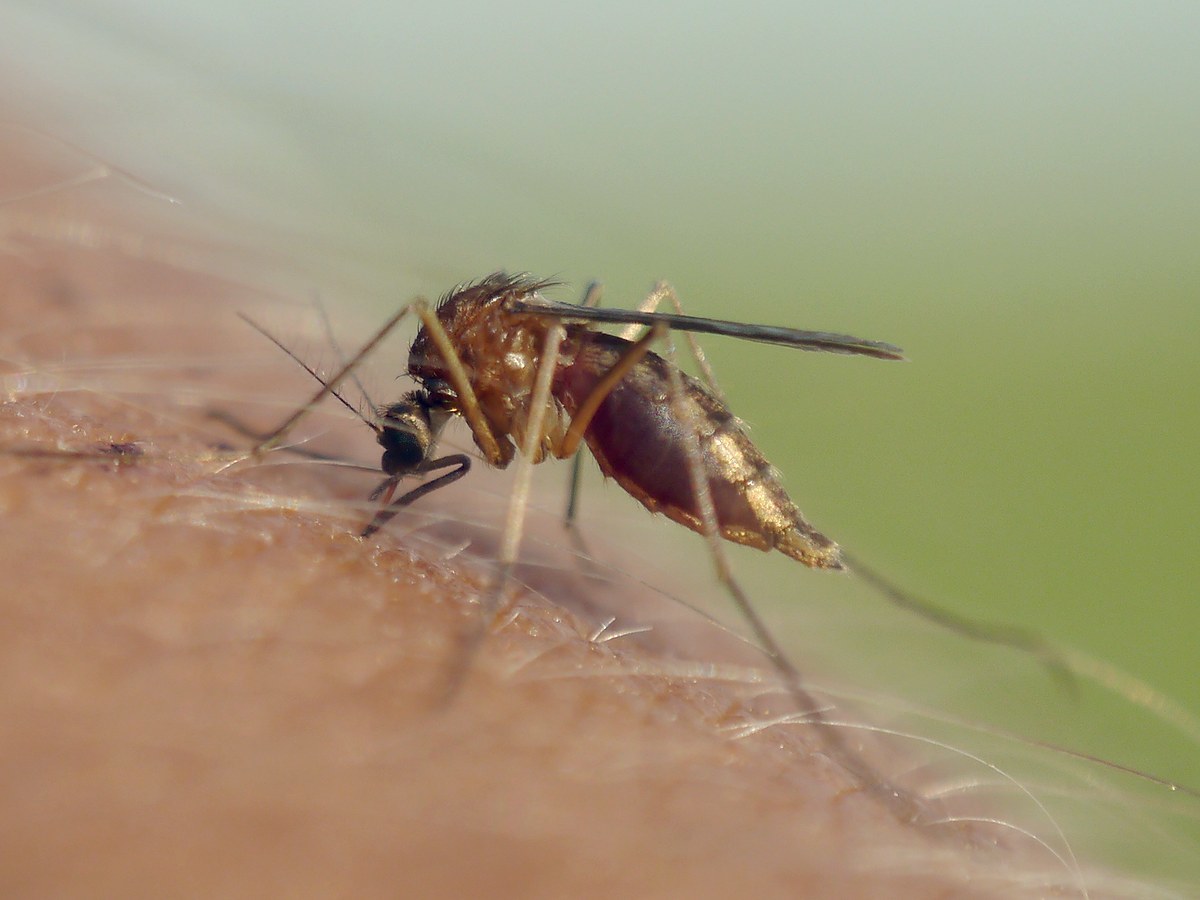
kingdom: Animalia
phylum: Arthropoda
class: Insecta
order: Diptera
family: Culicidae
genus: Aedes
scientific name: Aedes cinereus
